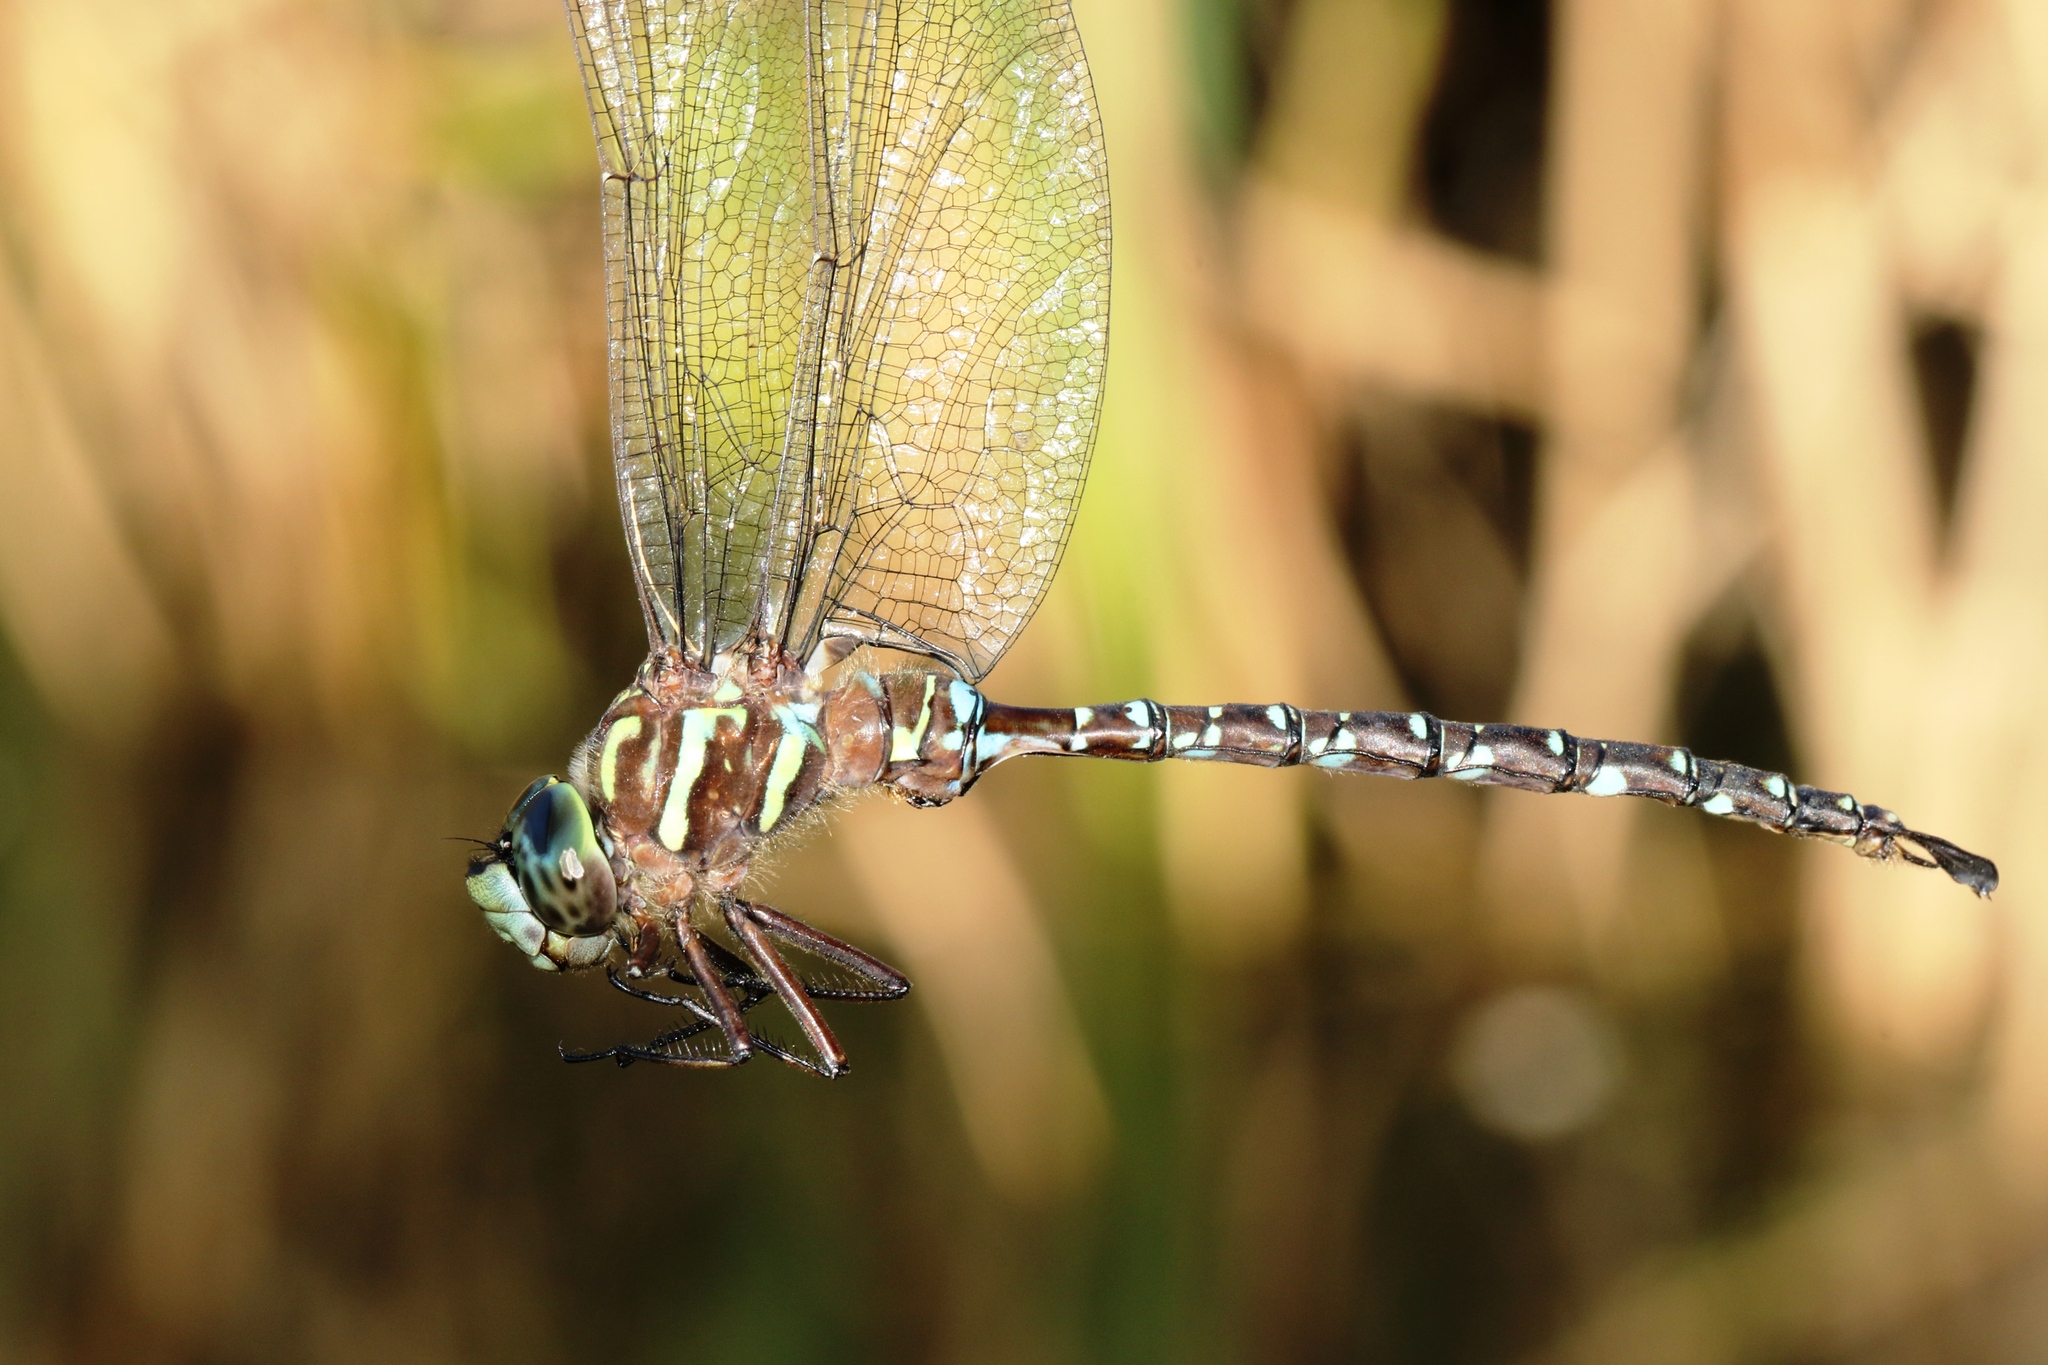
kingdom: Animalia
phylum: Arthropoda
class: Insecta
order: Odonata
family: Aeshnidae
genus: Aeshna
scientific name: Aeshna umbrosa
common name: Shadow darner
